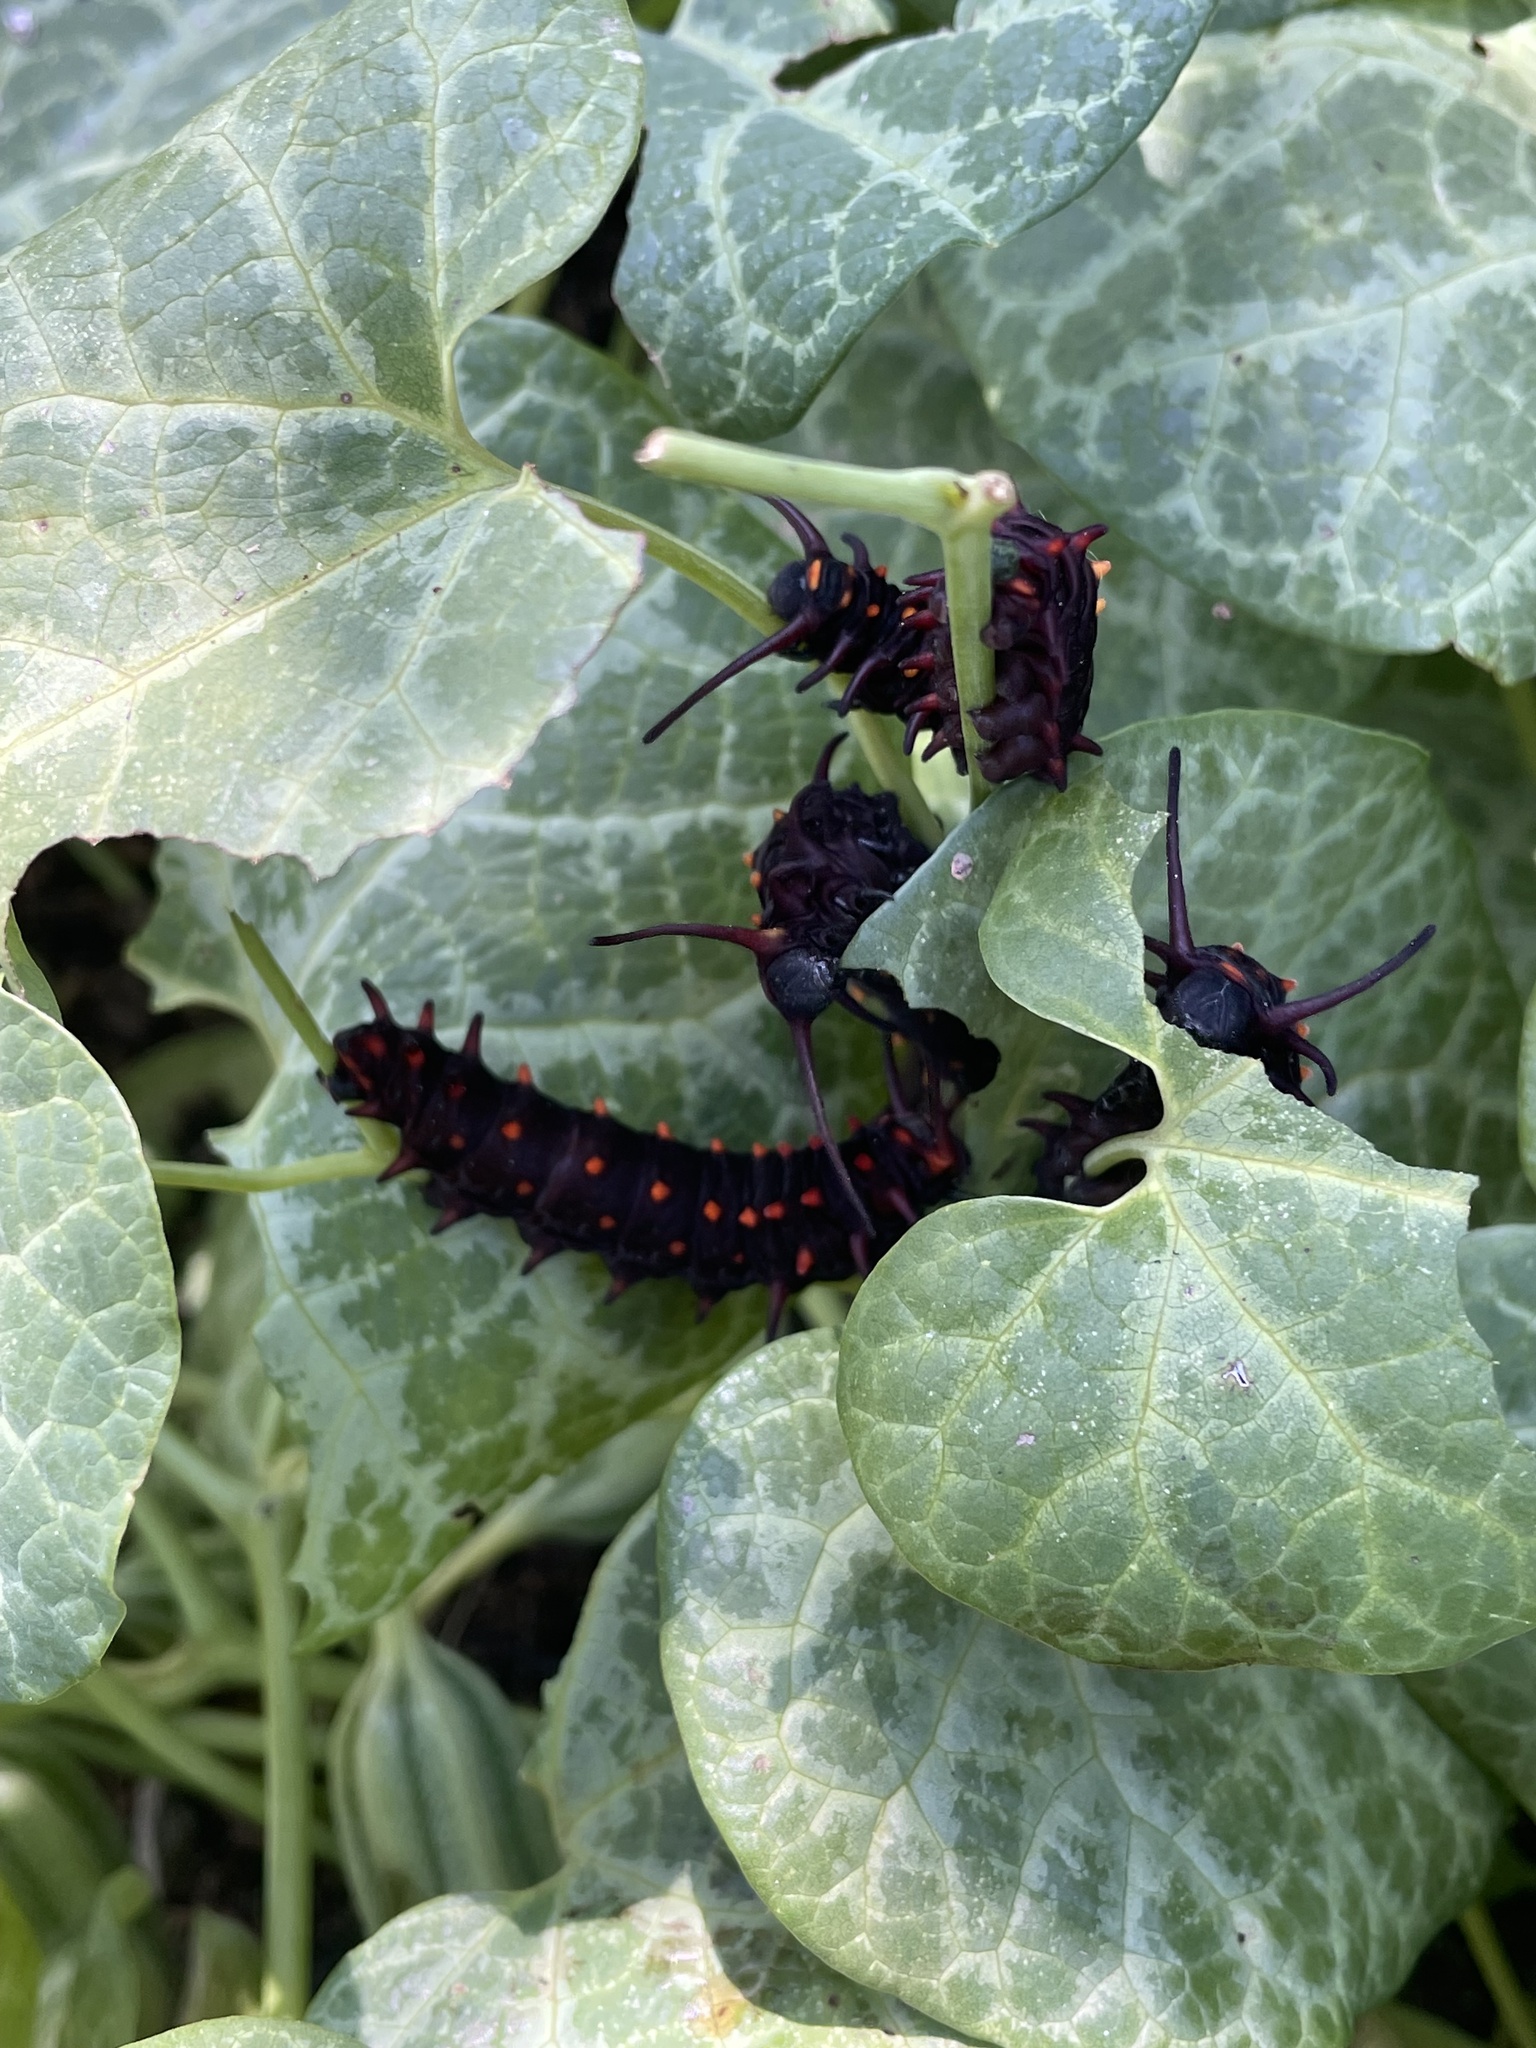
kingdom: Animalia
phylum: Arthropoda
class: Insecta
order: Lepidoptera
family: Papilionidae
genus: Battus
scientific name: Battus philenor
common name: Pipevine swallowtail
